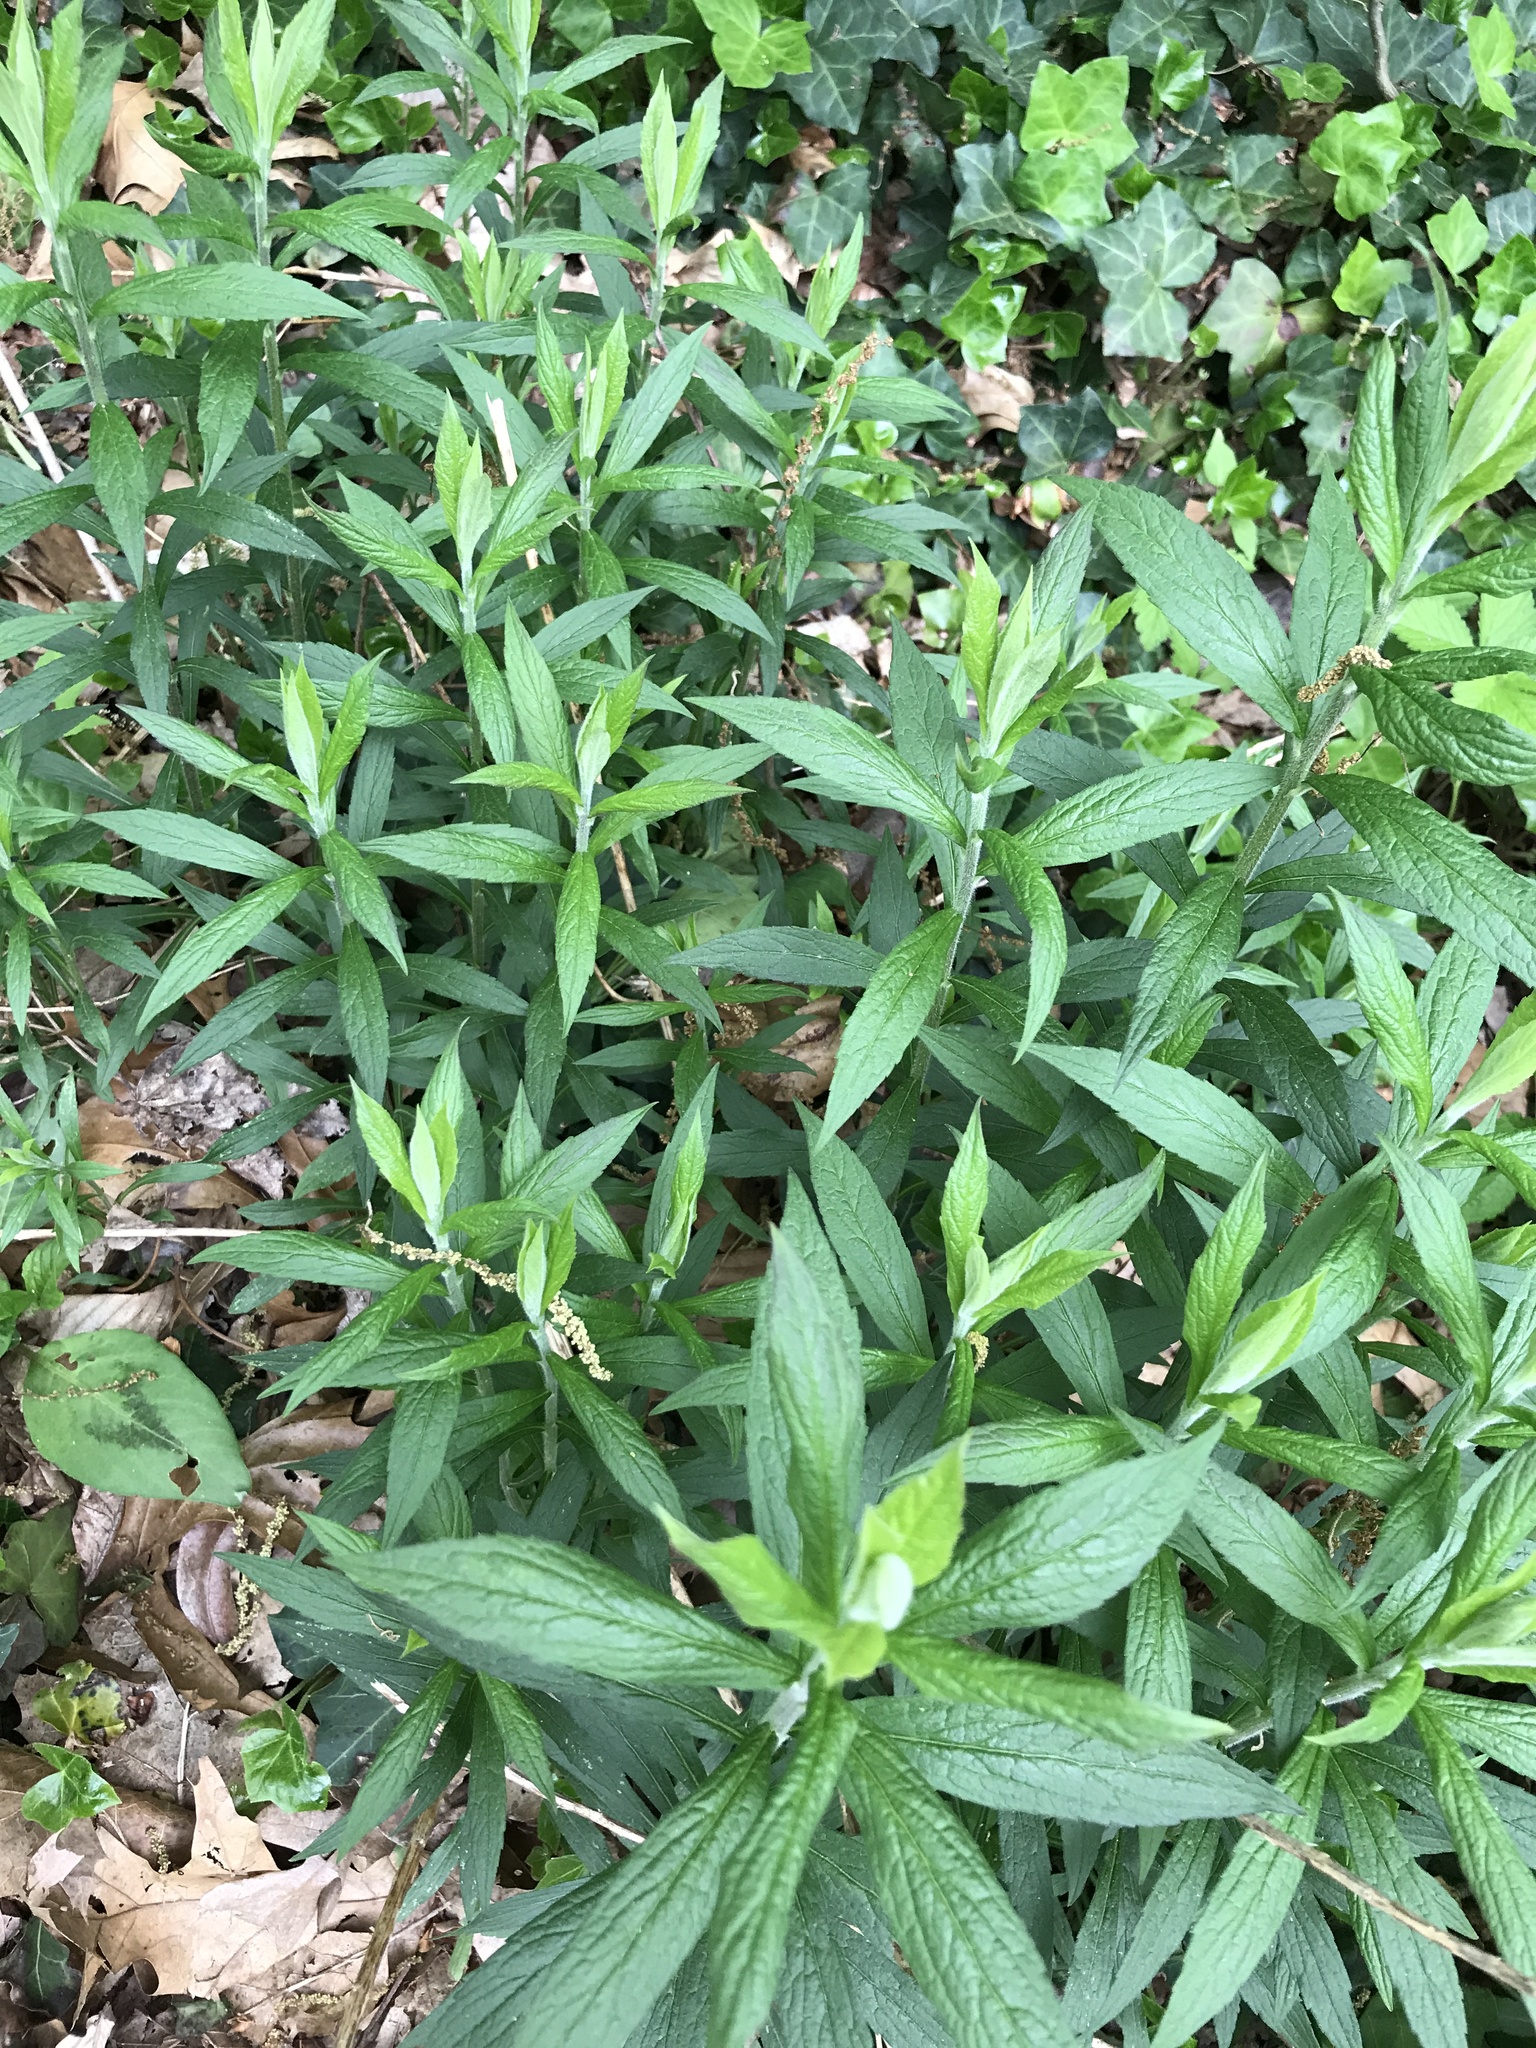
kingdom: Plantae
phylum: Tracheophyta
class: Magnoliopsida
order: Asterales
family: Asteraceae
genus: Solidago
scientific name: Solidago rugosa
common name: Rough-stemmed goldenrod
